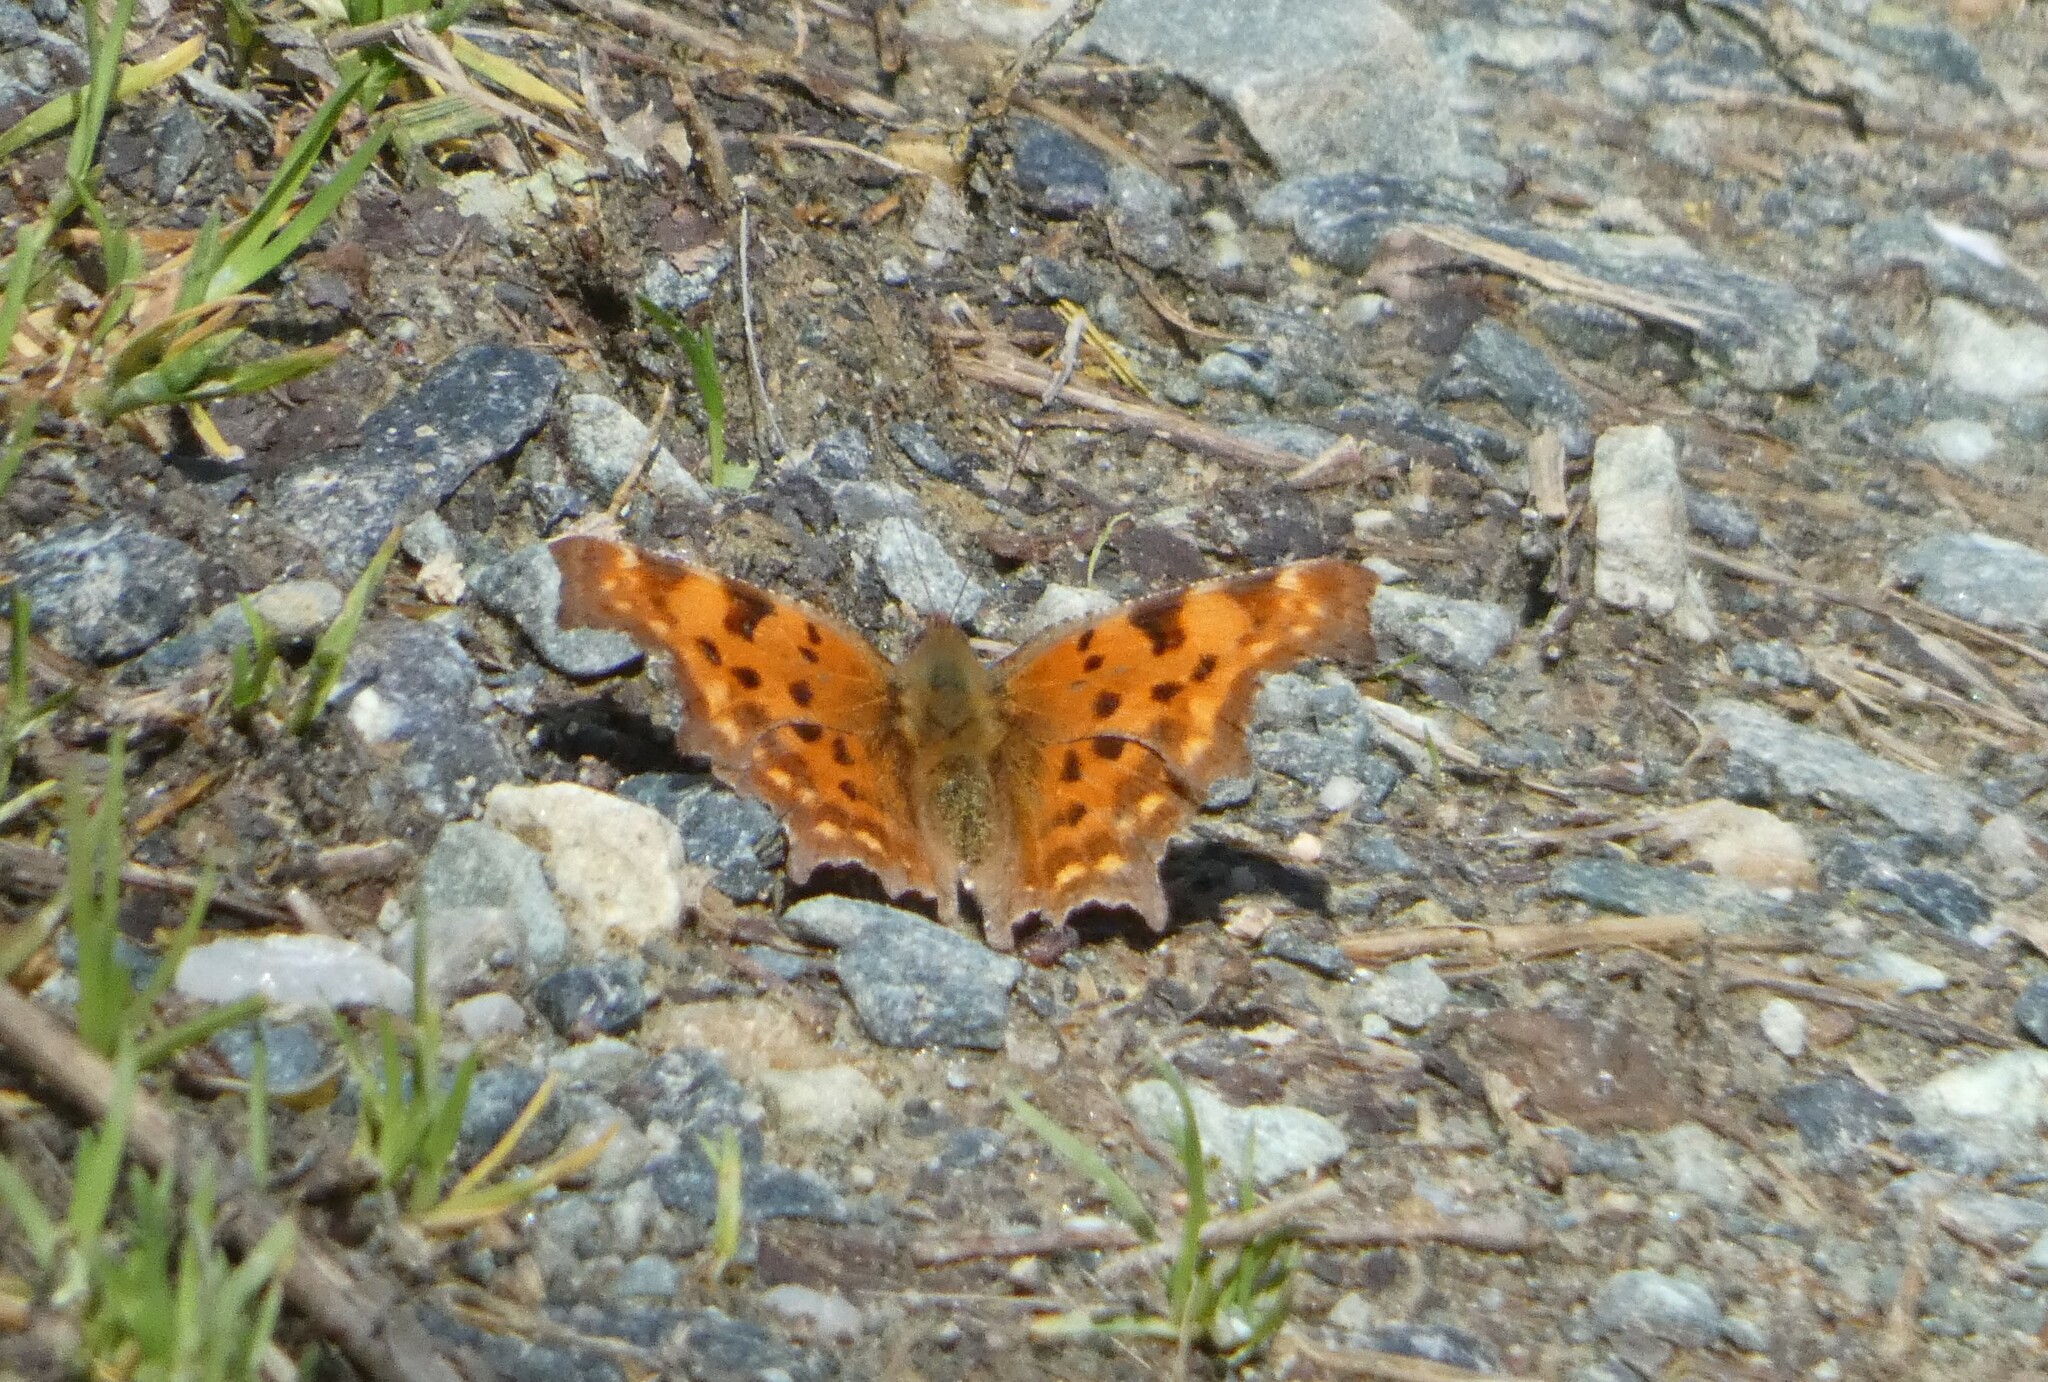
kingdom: Animalia
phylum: Arthropoda
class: Insecta
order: Lepidoptera
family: Nymphalidae
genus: Polygonia
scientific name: Polygonia c-album
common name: Comma
